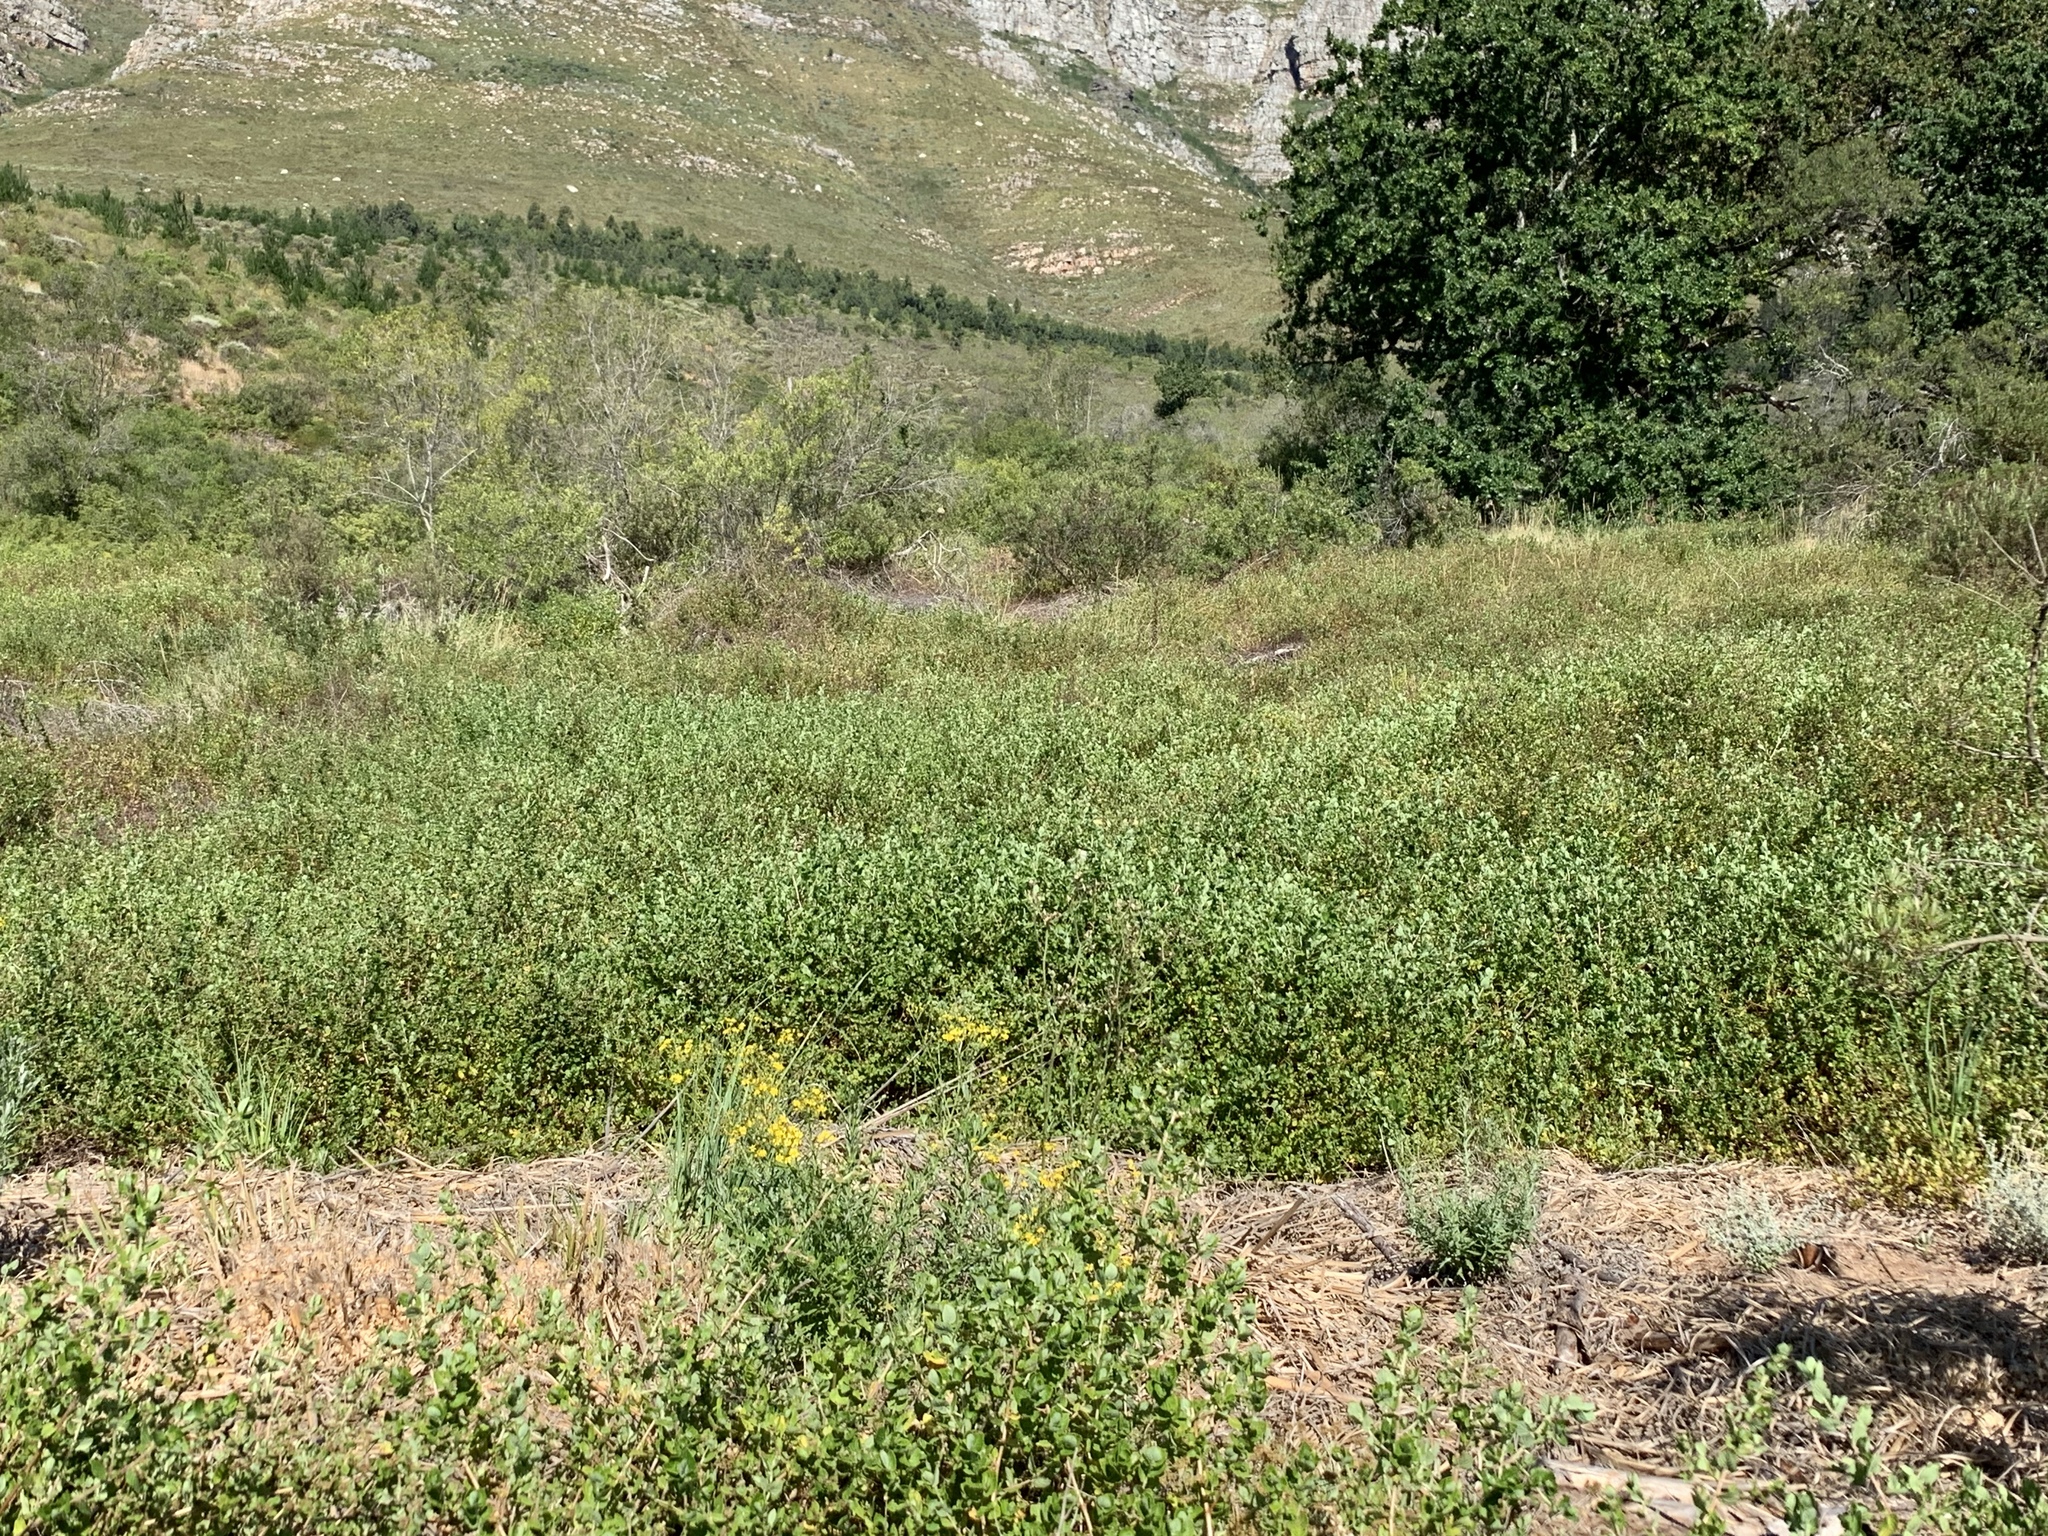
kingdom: Plantae
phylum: Tracheophyta
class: Magnoliopsida
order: Rosales
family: Rosaceae
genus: Cliffortia
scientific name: Cliffortia odorata
